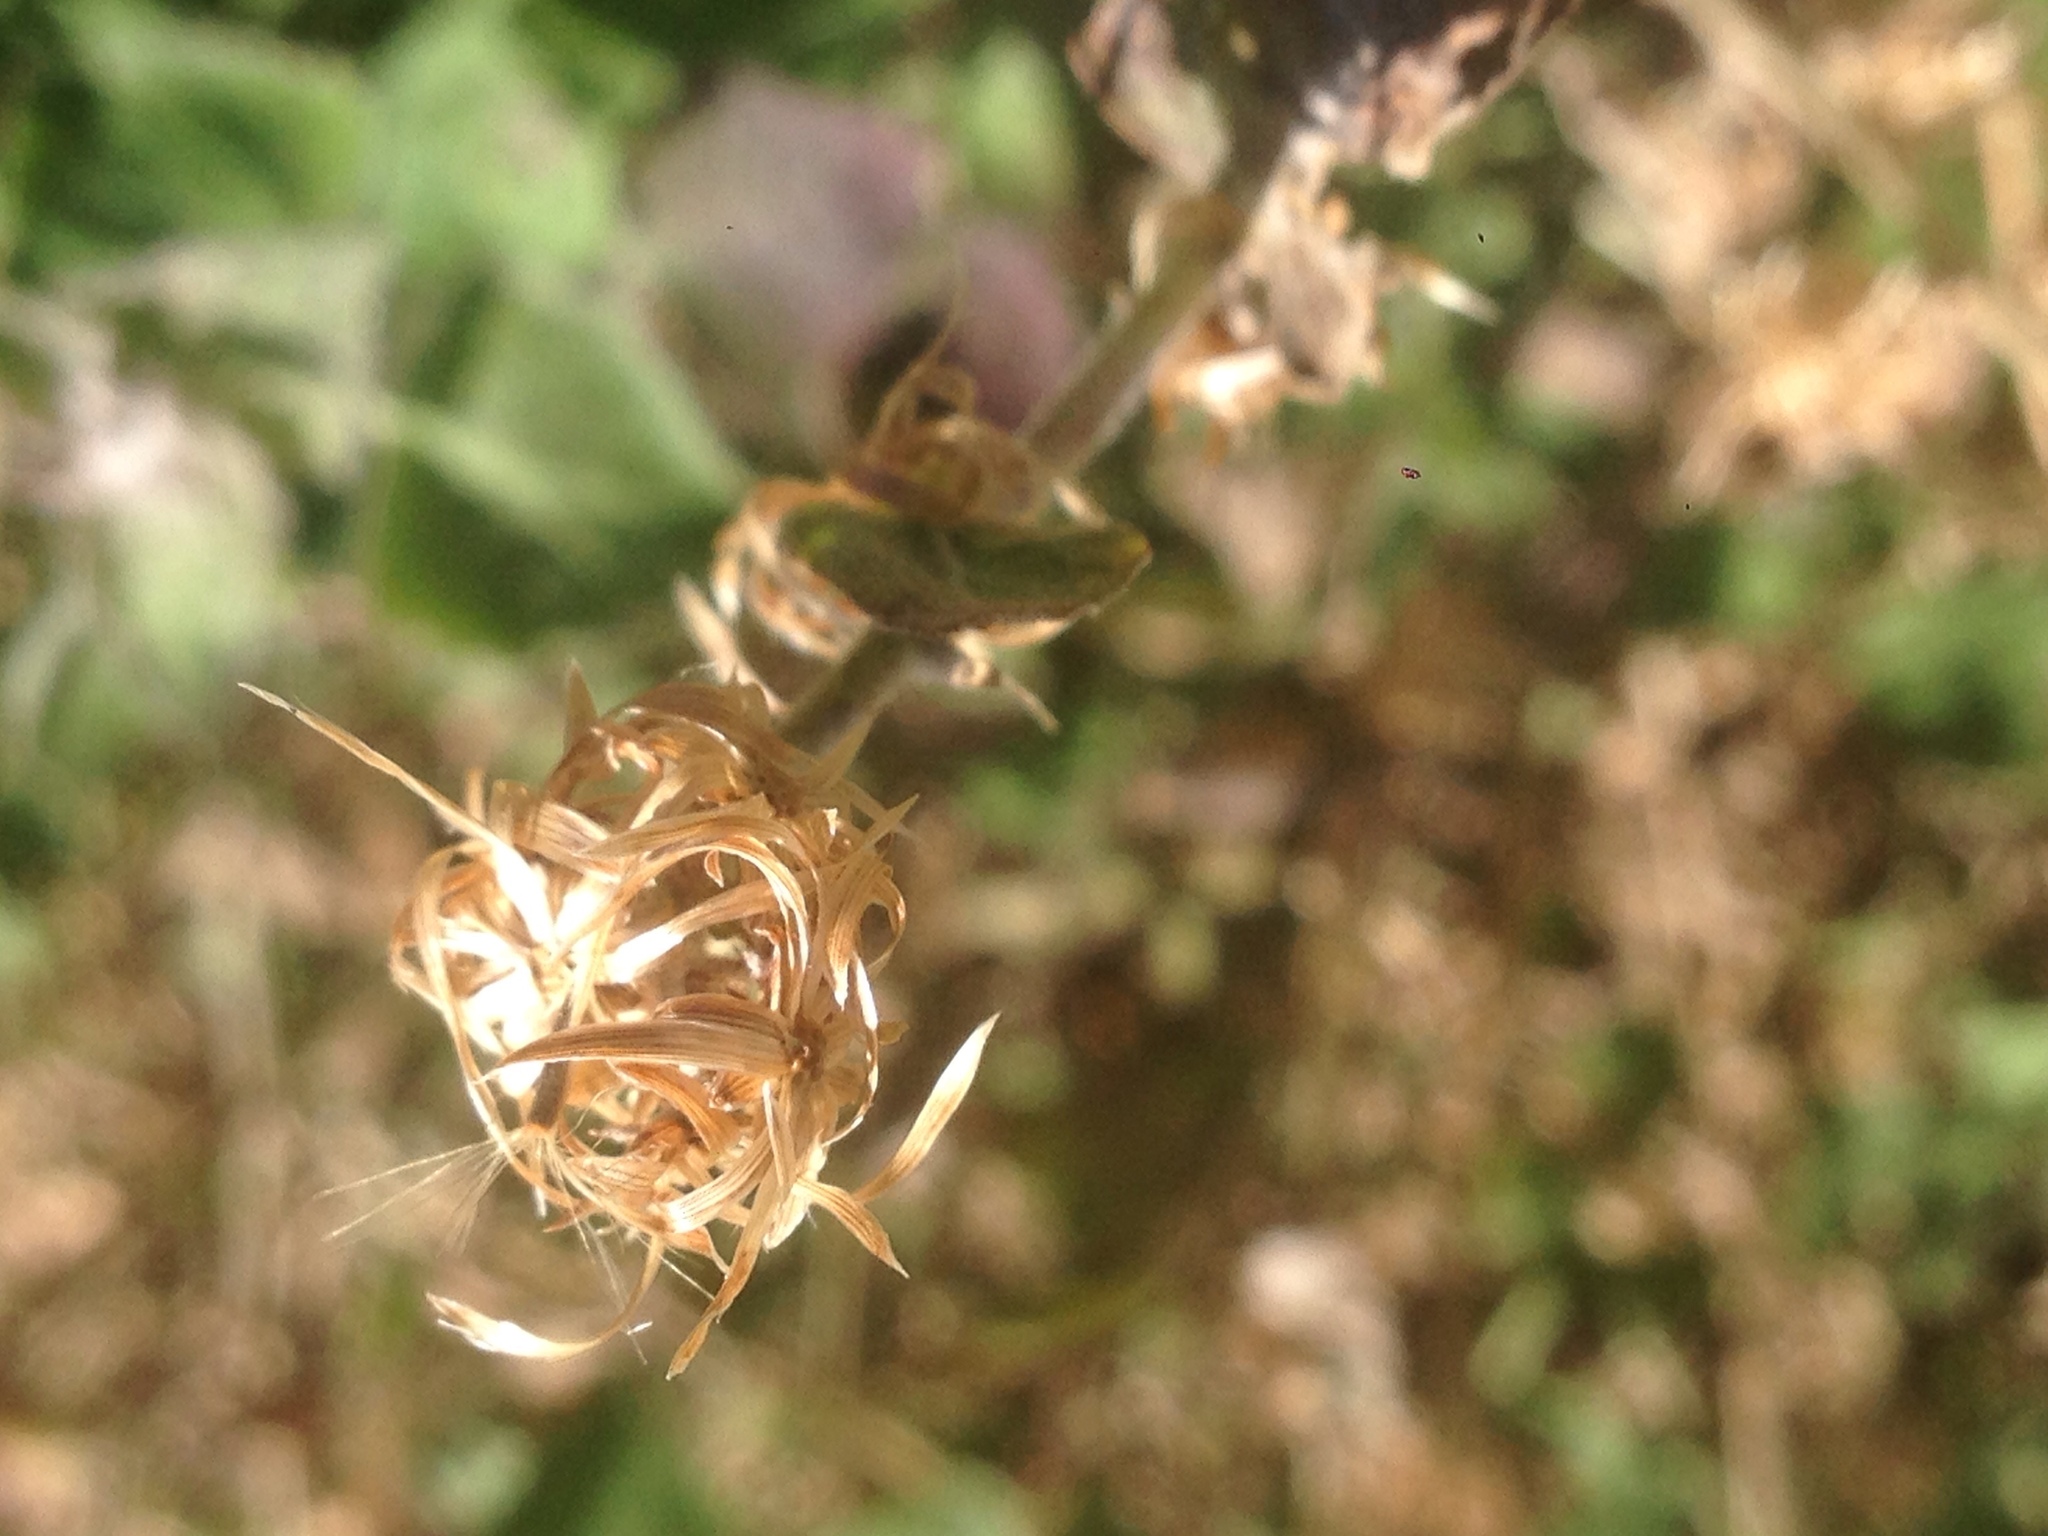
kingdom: Plantae
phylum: Tracheophyta
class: Magnoliopsida
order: Asterales
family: Asteraceae
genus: Brickellia
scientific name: Brickellia californica
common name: California brickellbush
